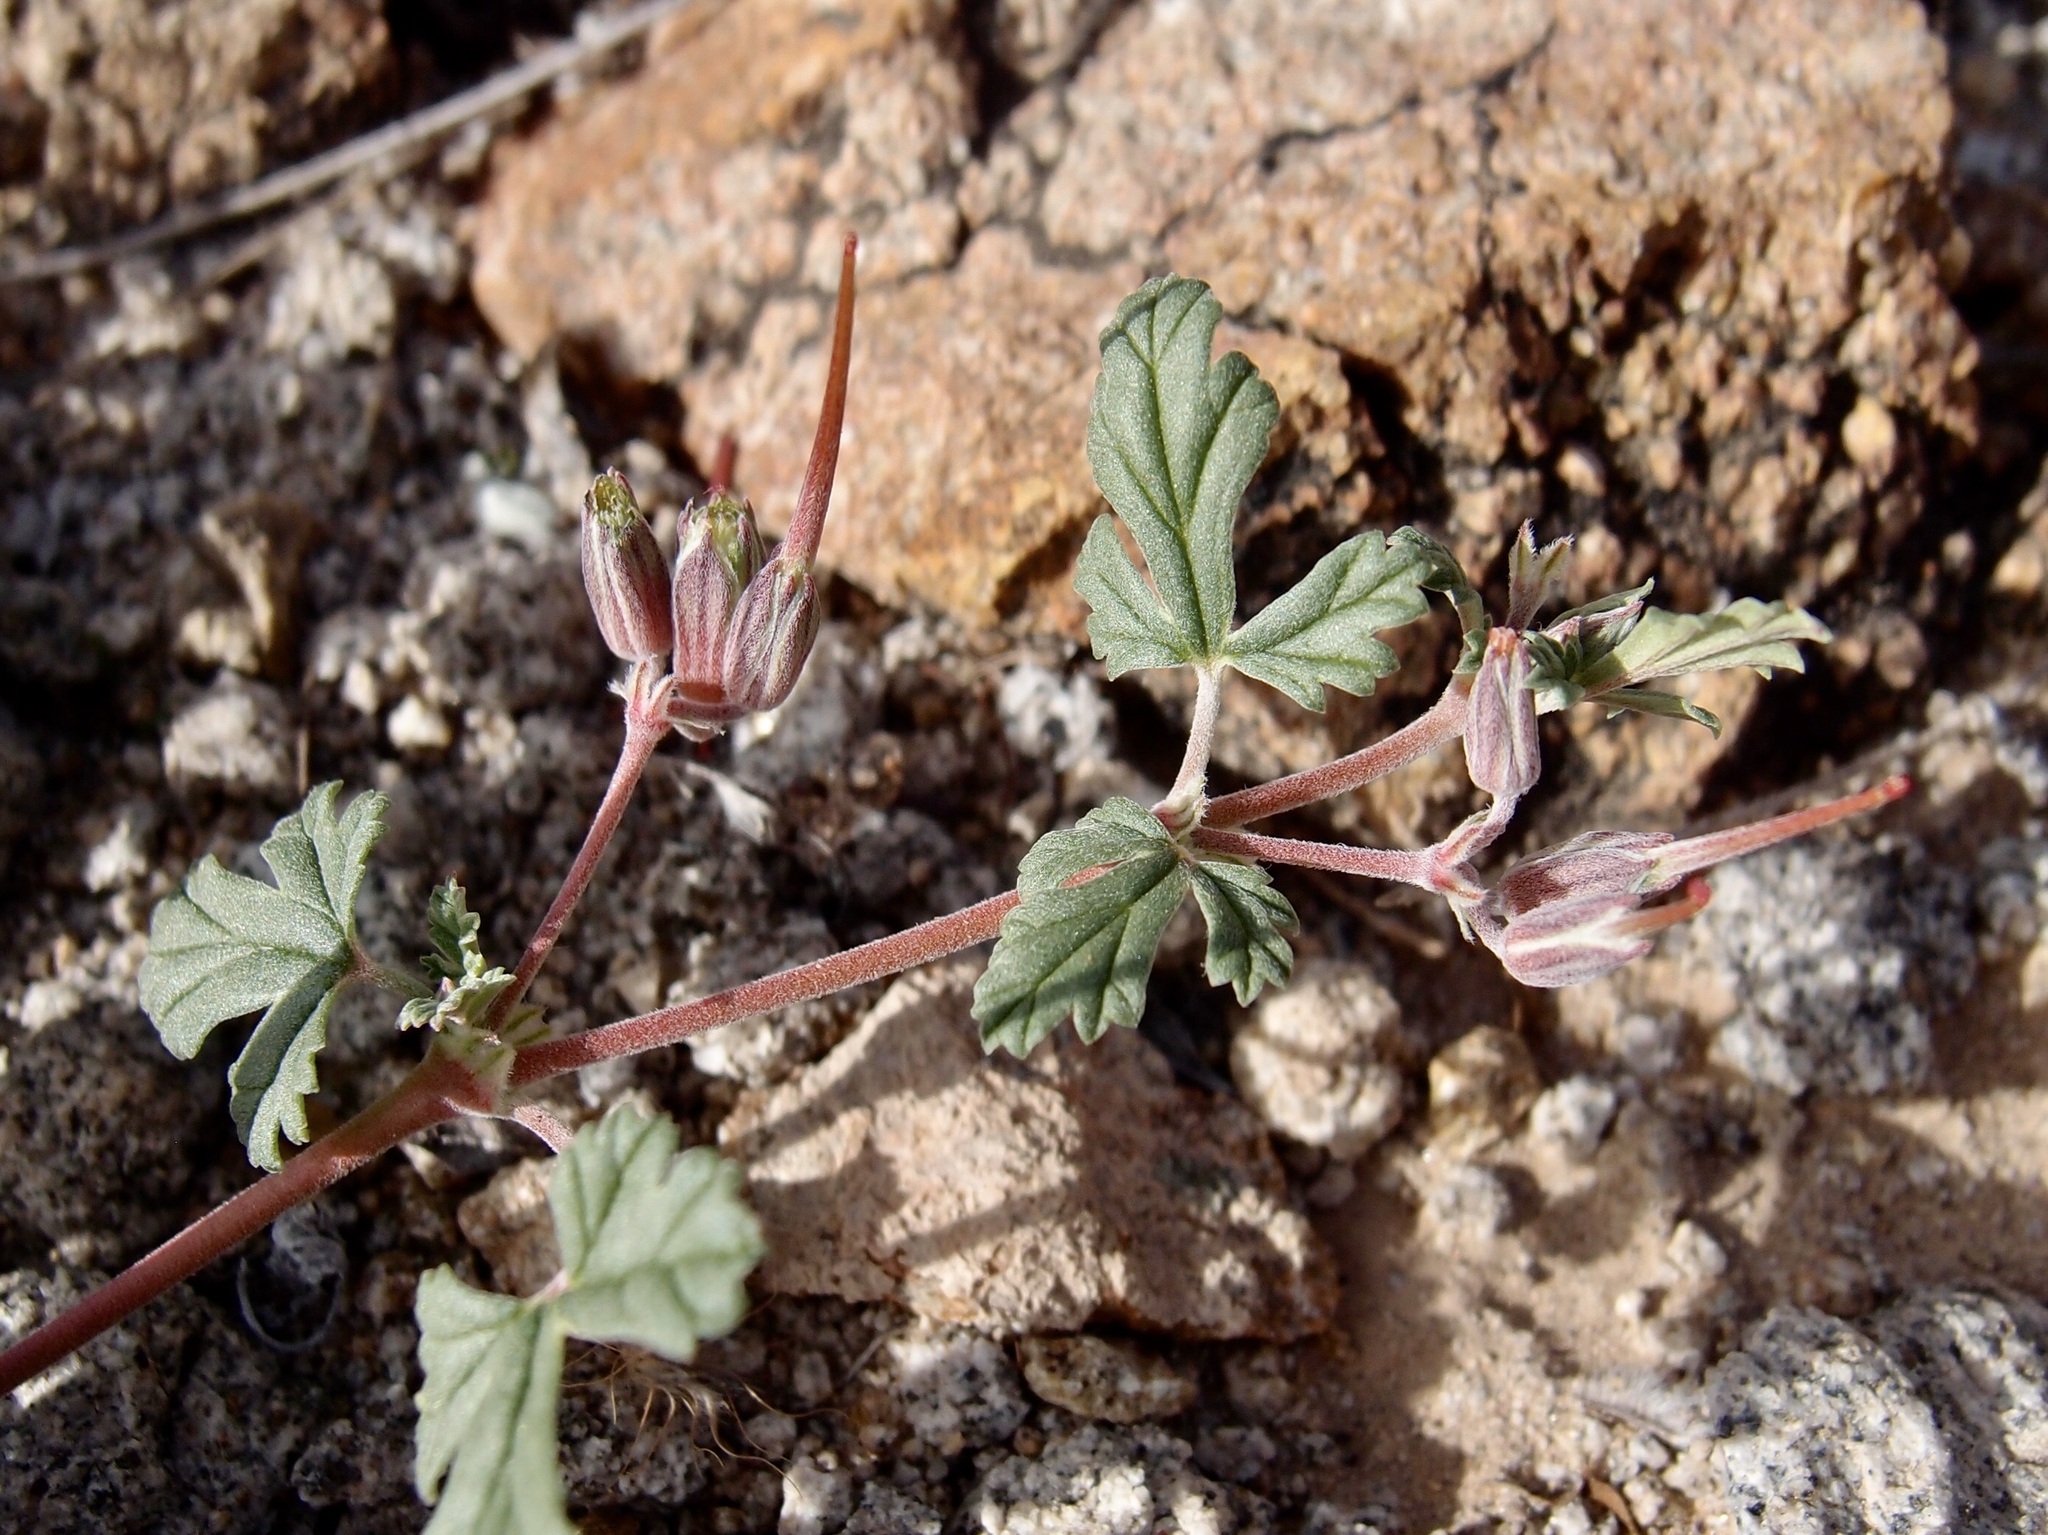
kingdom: Plantae
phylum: Tracheophyta
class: Magnoliopsida
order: Geraniales
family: Geraniaceae
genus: Erodium
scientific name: Erodium texanum
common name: Texas stork's-bill
